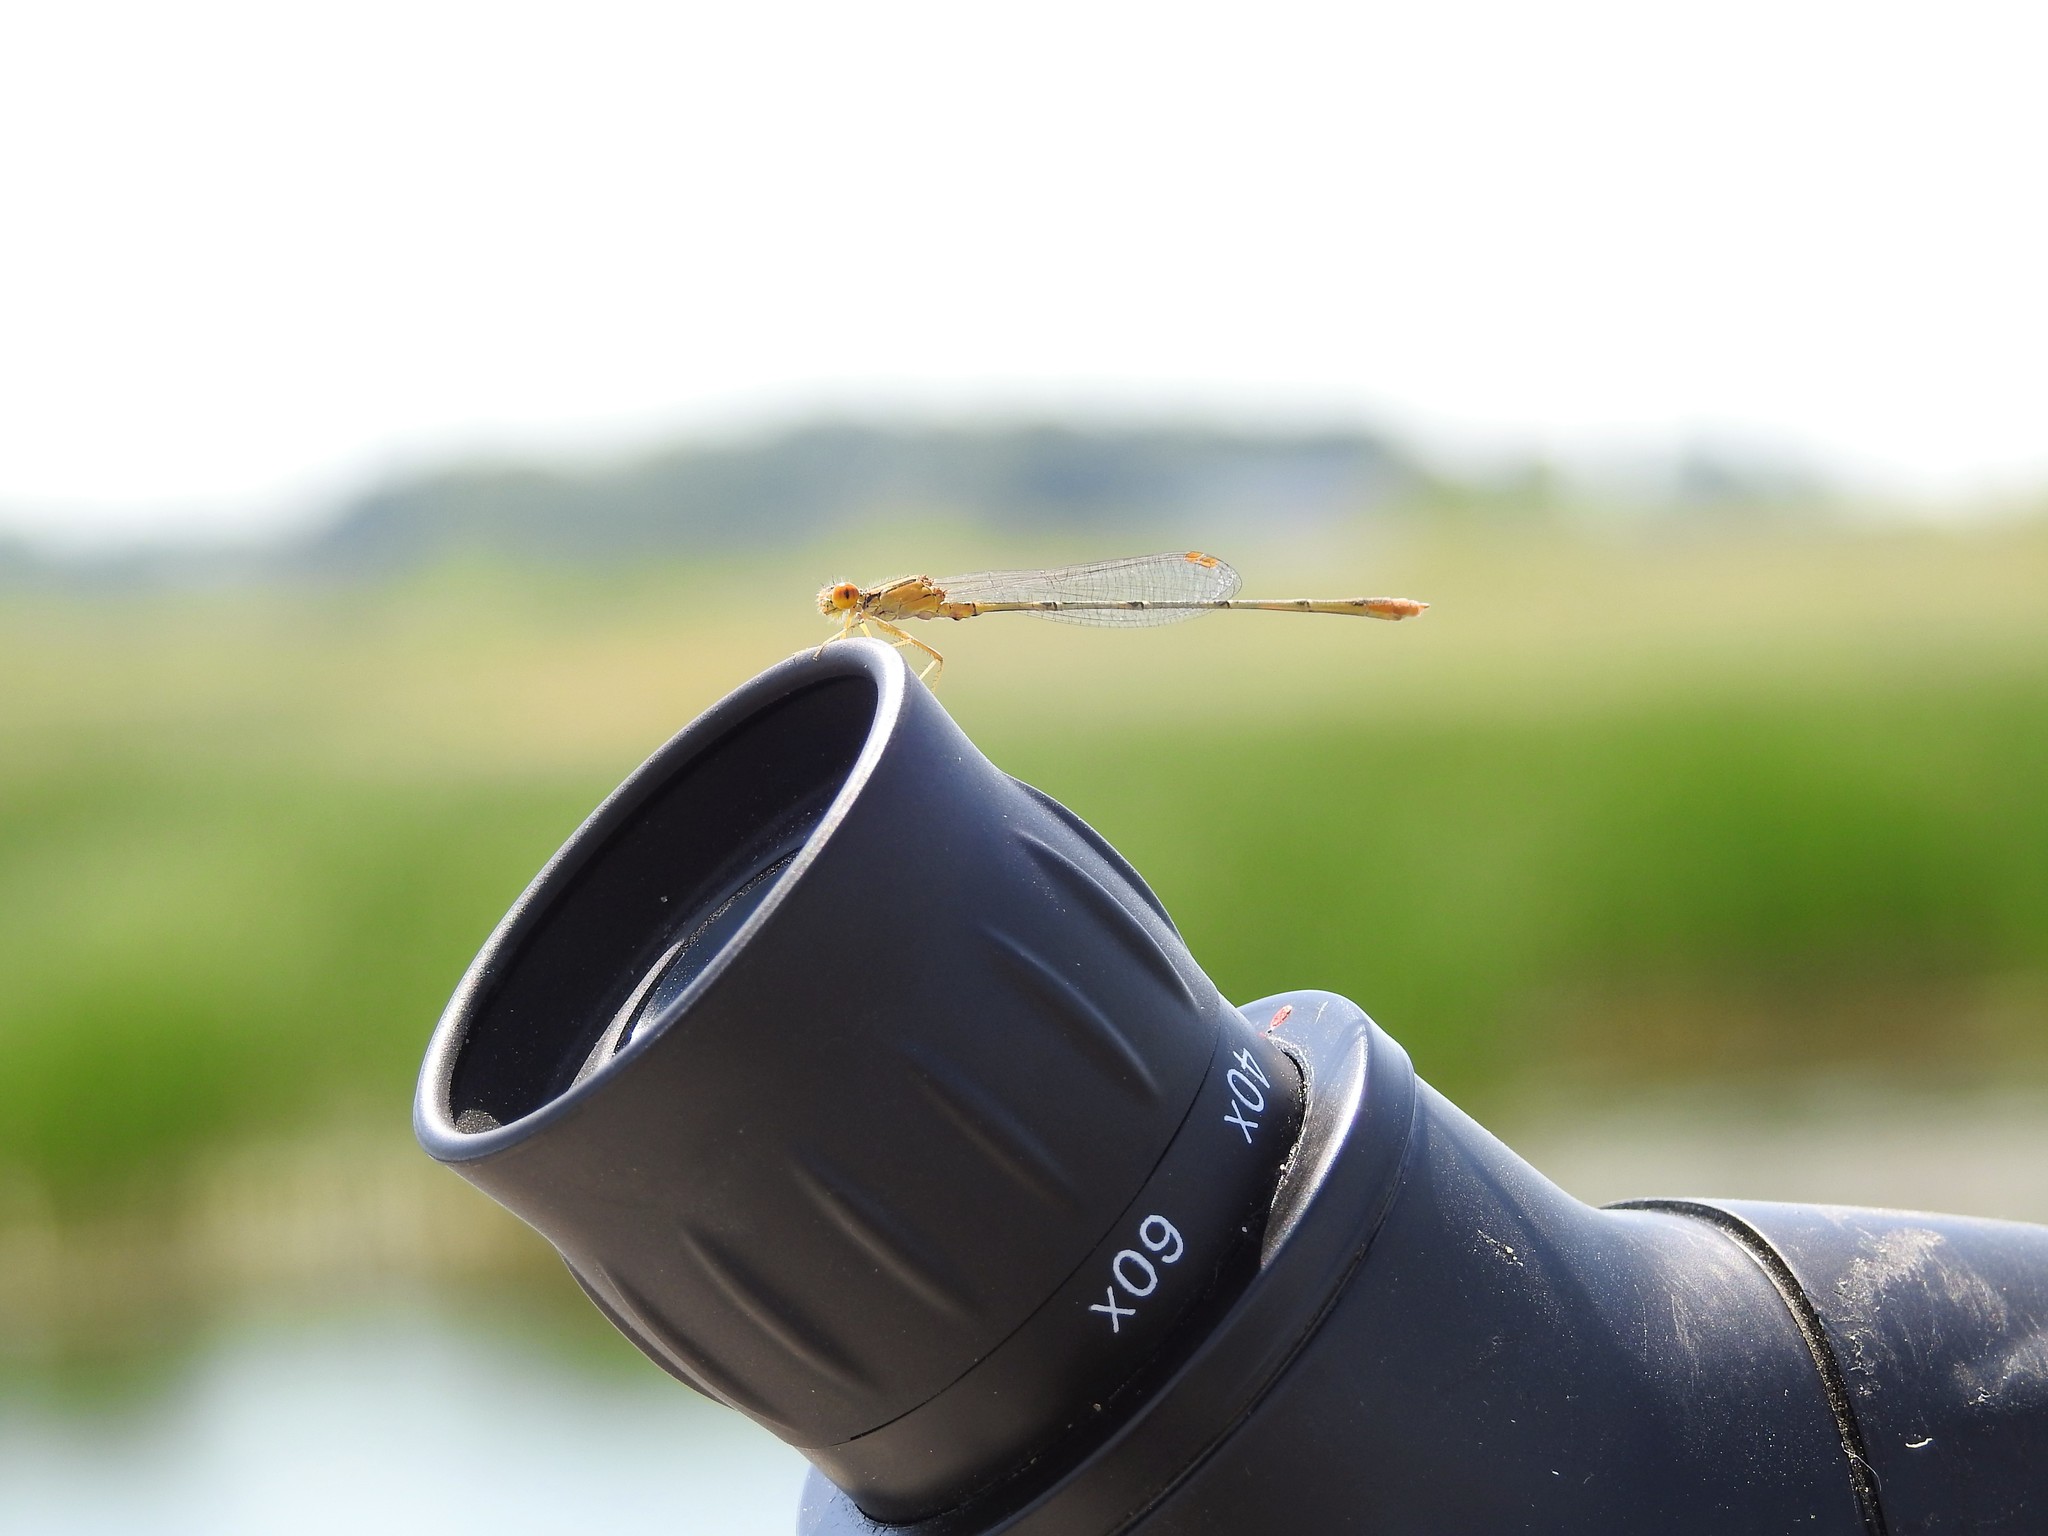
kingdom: Animalia
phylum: Arthropoda
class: Insecta
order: Odonata
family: Coenagrionidae
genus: Enallagma
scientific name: Enallagma signatum
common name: Orange bluet
